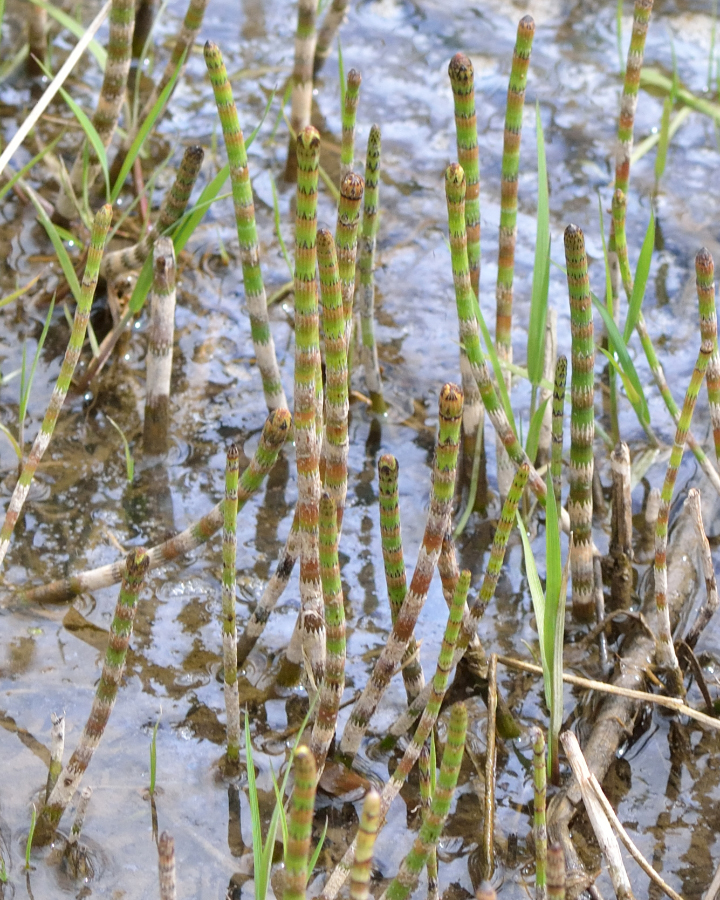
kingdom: Plantae
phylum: Tracheophyta
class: Polypodiopsida
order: Equisetales
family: Equisetaceae
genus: Equisetum
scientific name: Equisetum fluviatile
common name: Water horsetail
